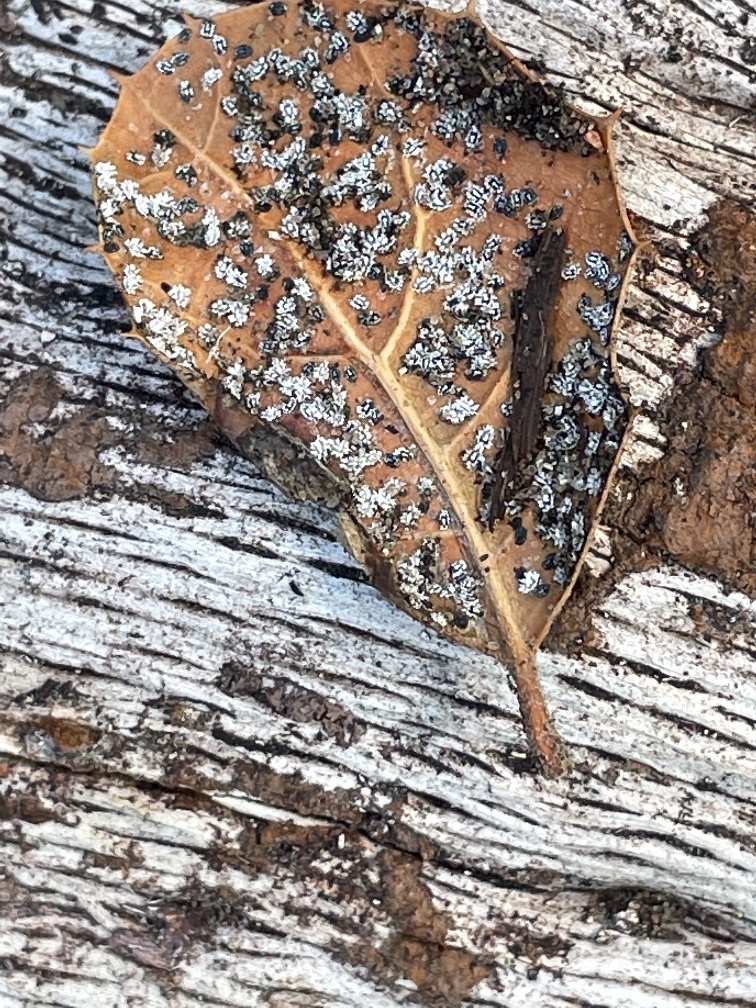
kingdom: Animalia
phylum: Arthropoda
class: Insecta
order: Hemiptera
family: Aleyrodidae
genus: Aleuroplatus
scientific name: Aleuroplatus coronata
